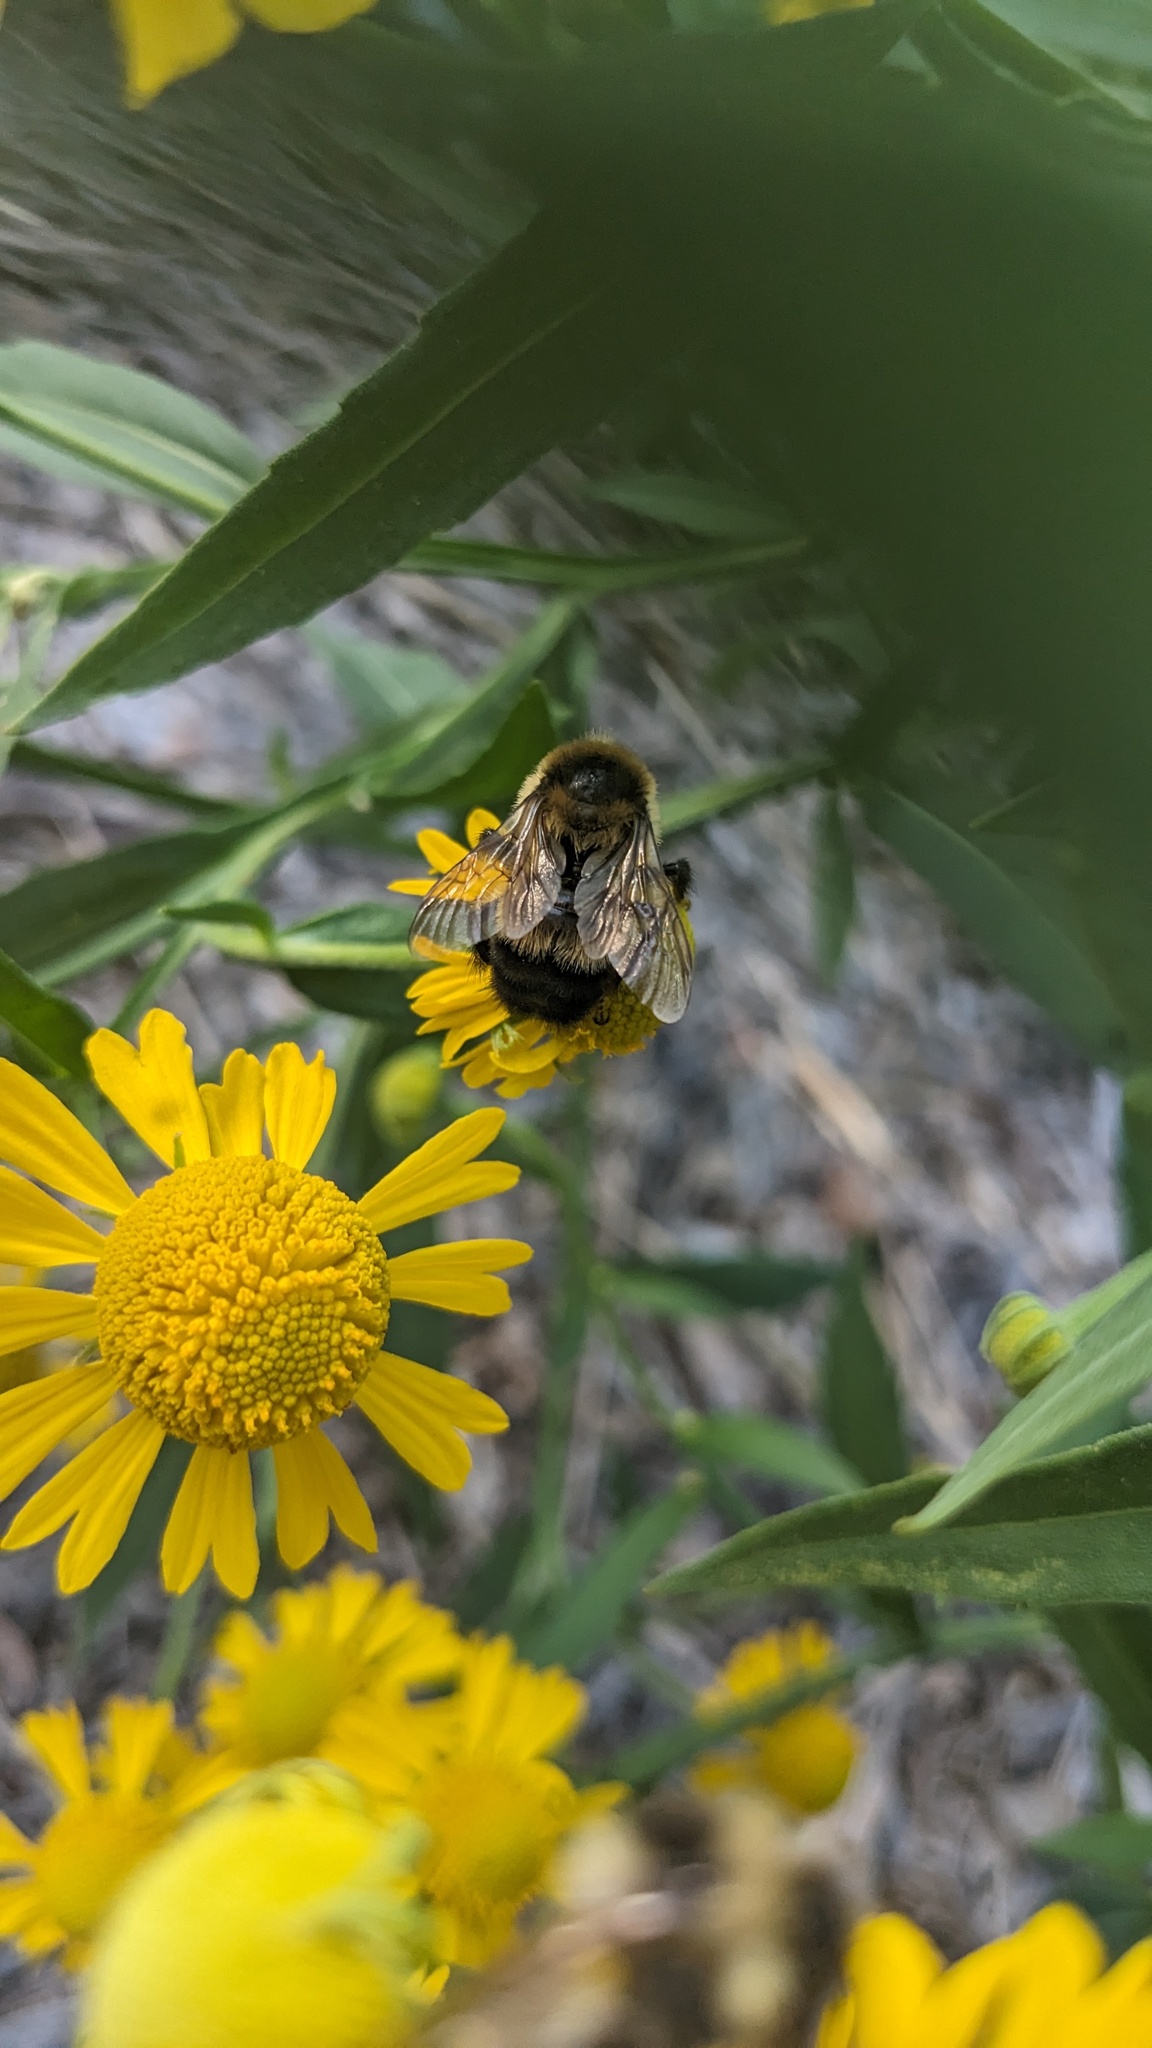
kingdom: Animalia
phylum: Arthropoda
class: Insecta
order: Hymenoptera
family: Apidae
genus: Bombus
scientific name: Bombus rufocinctus
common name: Red-belted bumble bee
